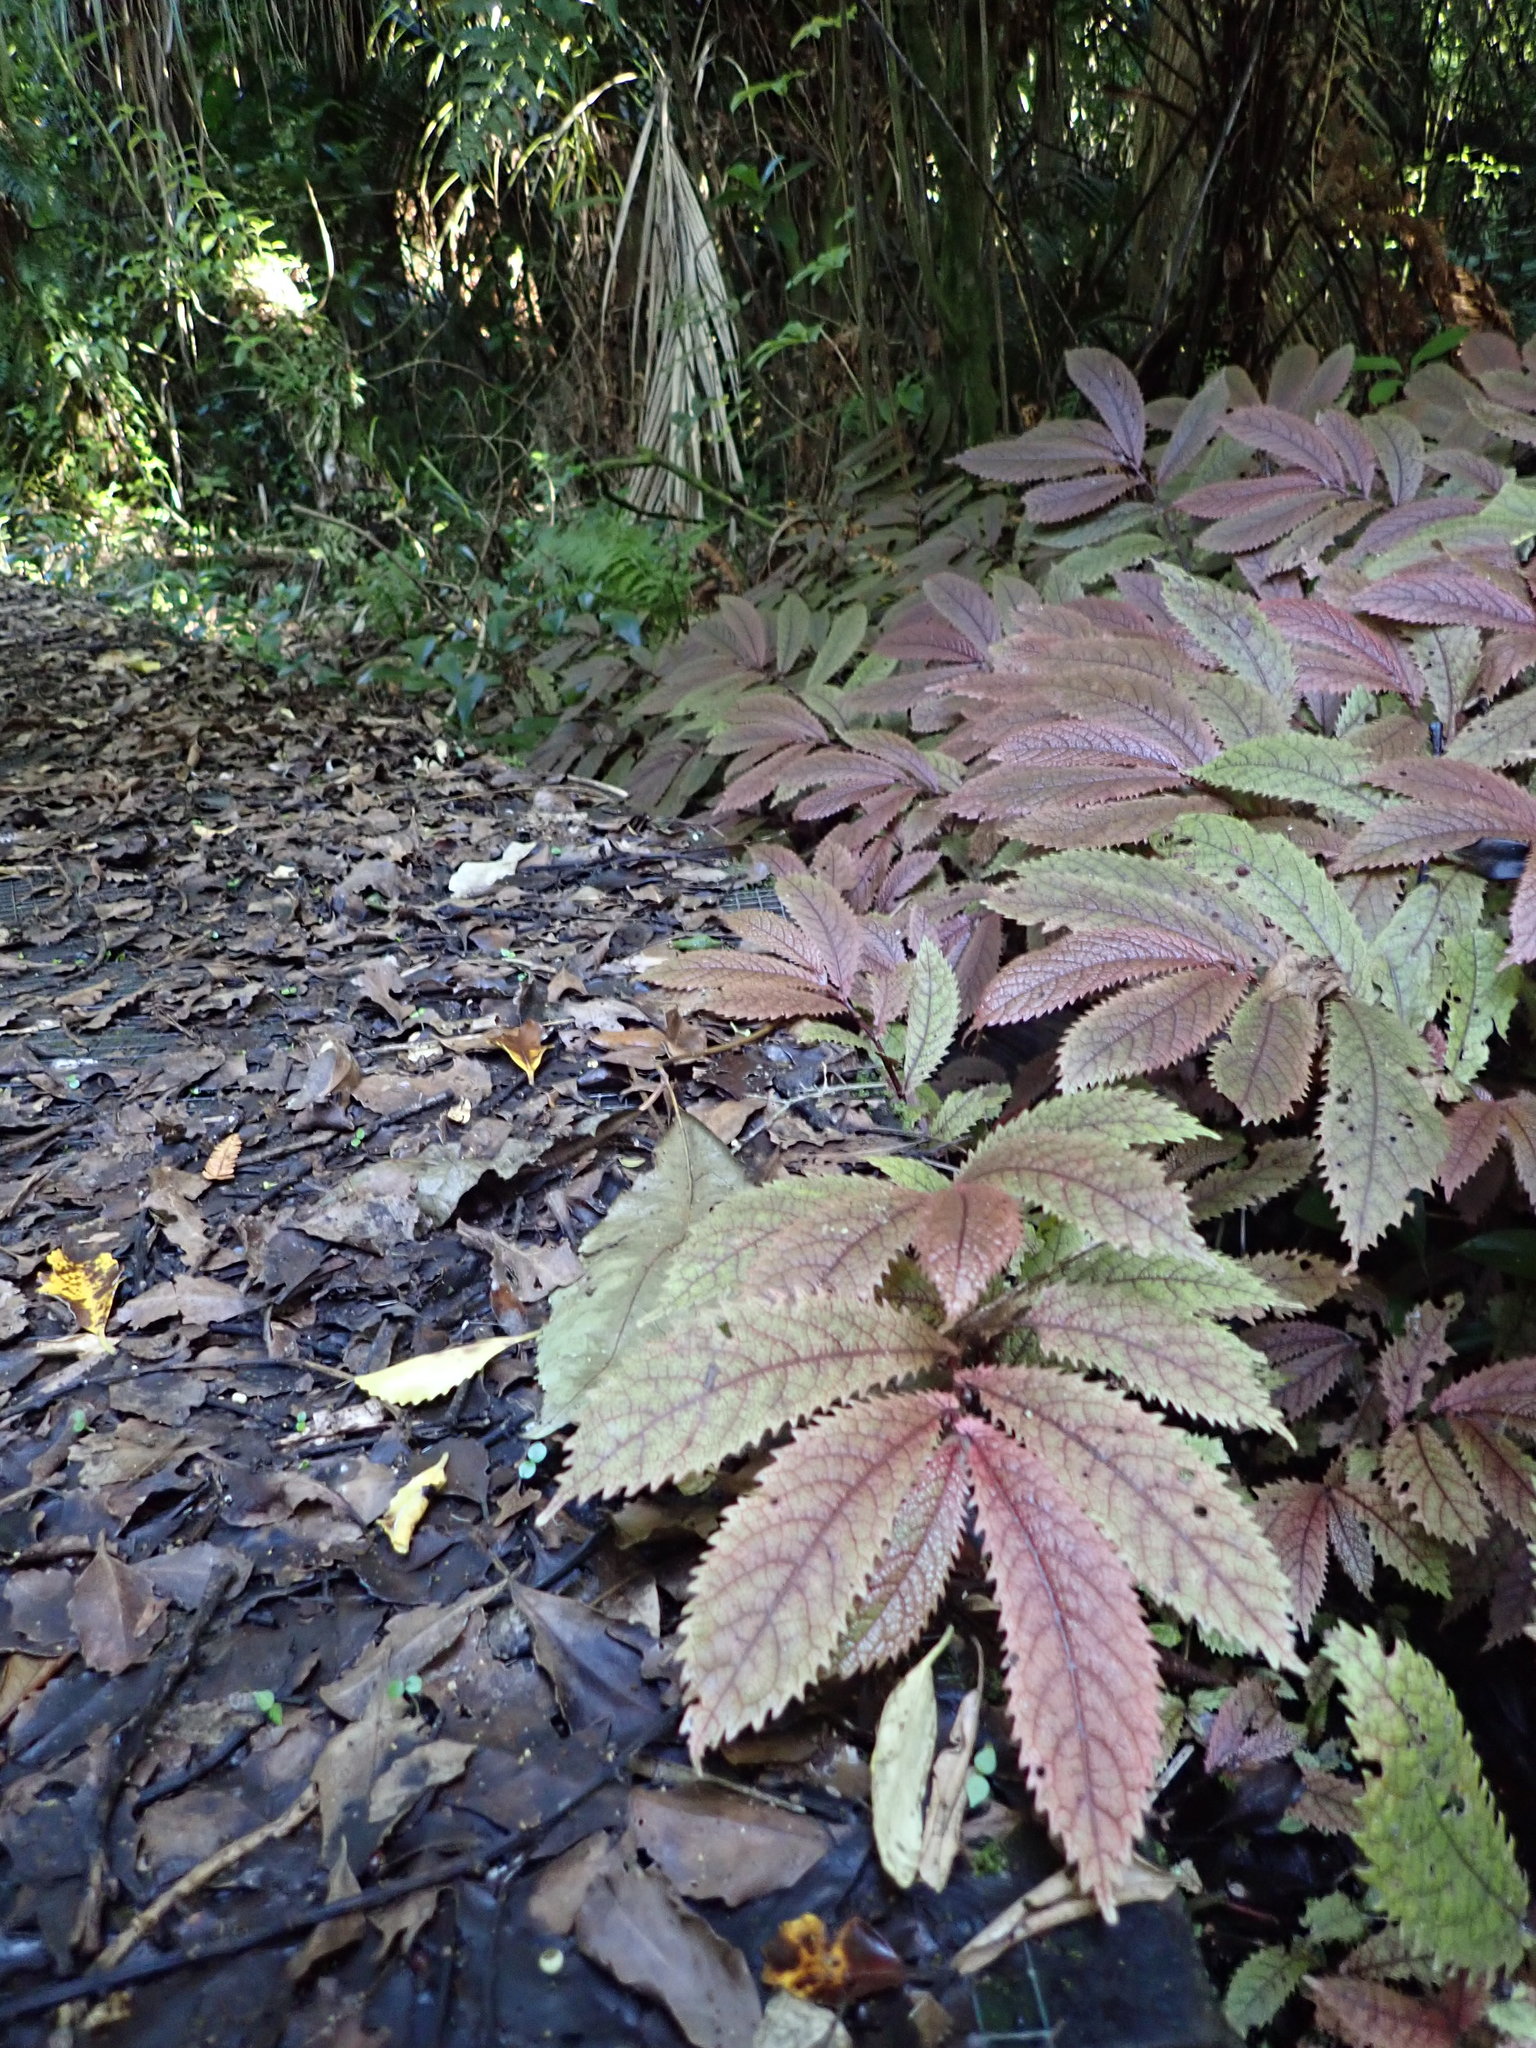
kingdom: Plantae
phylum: Tracheophyta
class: Magnoliopsida
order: Rosales
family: Urticaceae
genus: Elatostema
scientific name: Elatostema rugosum
